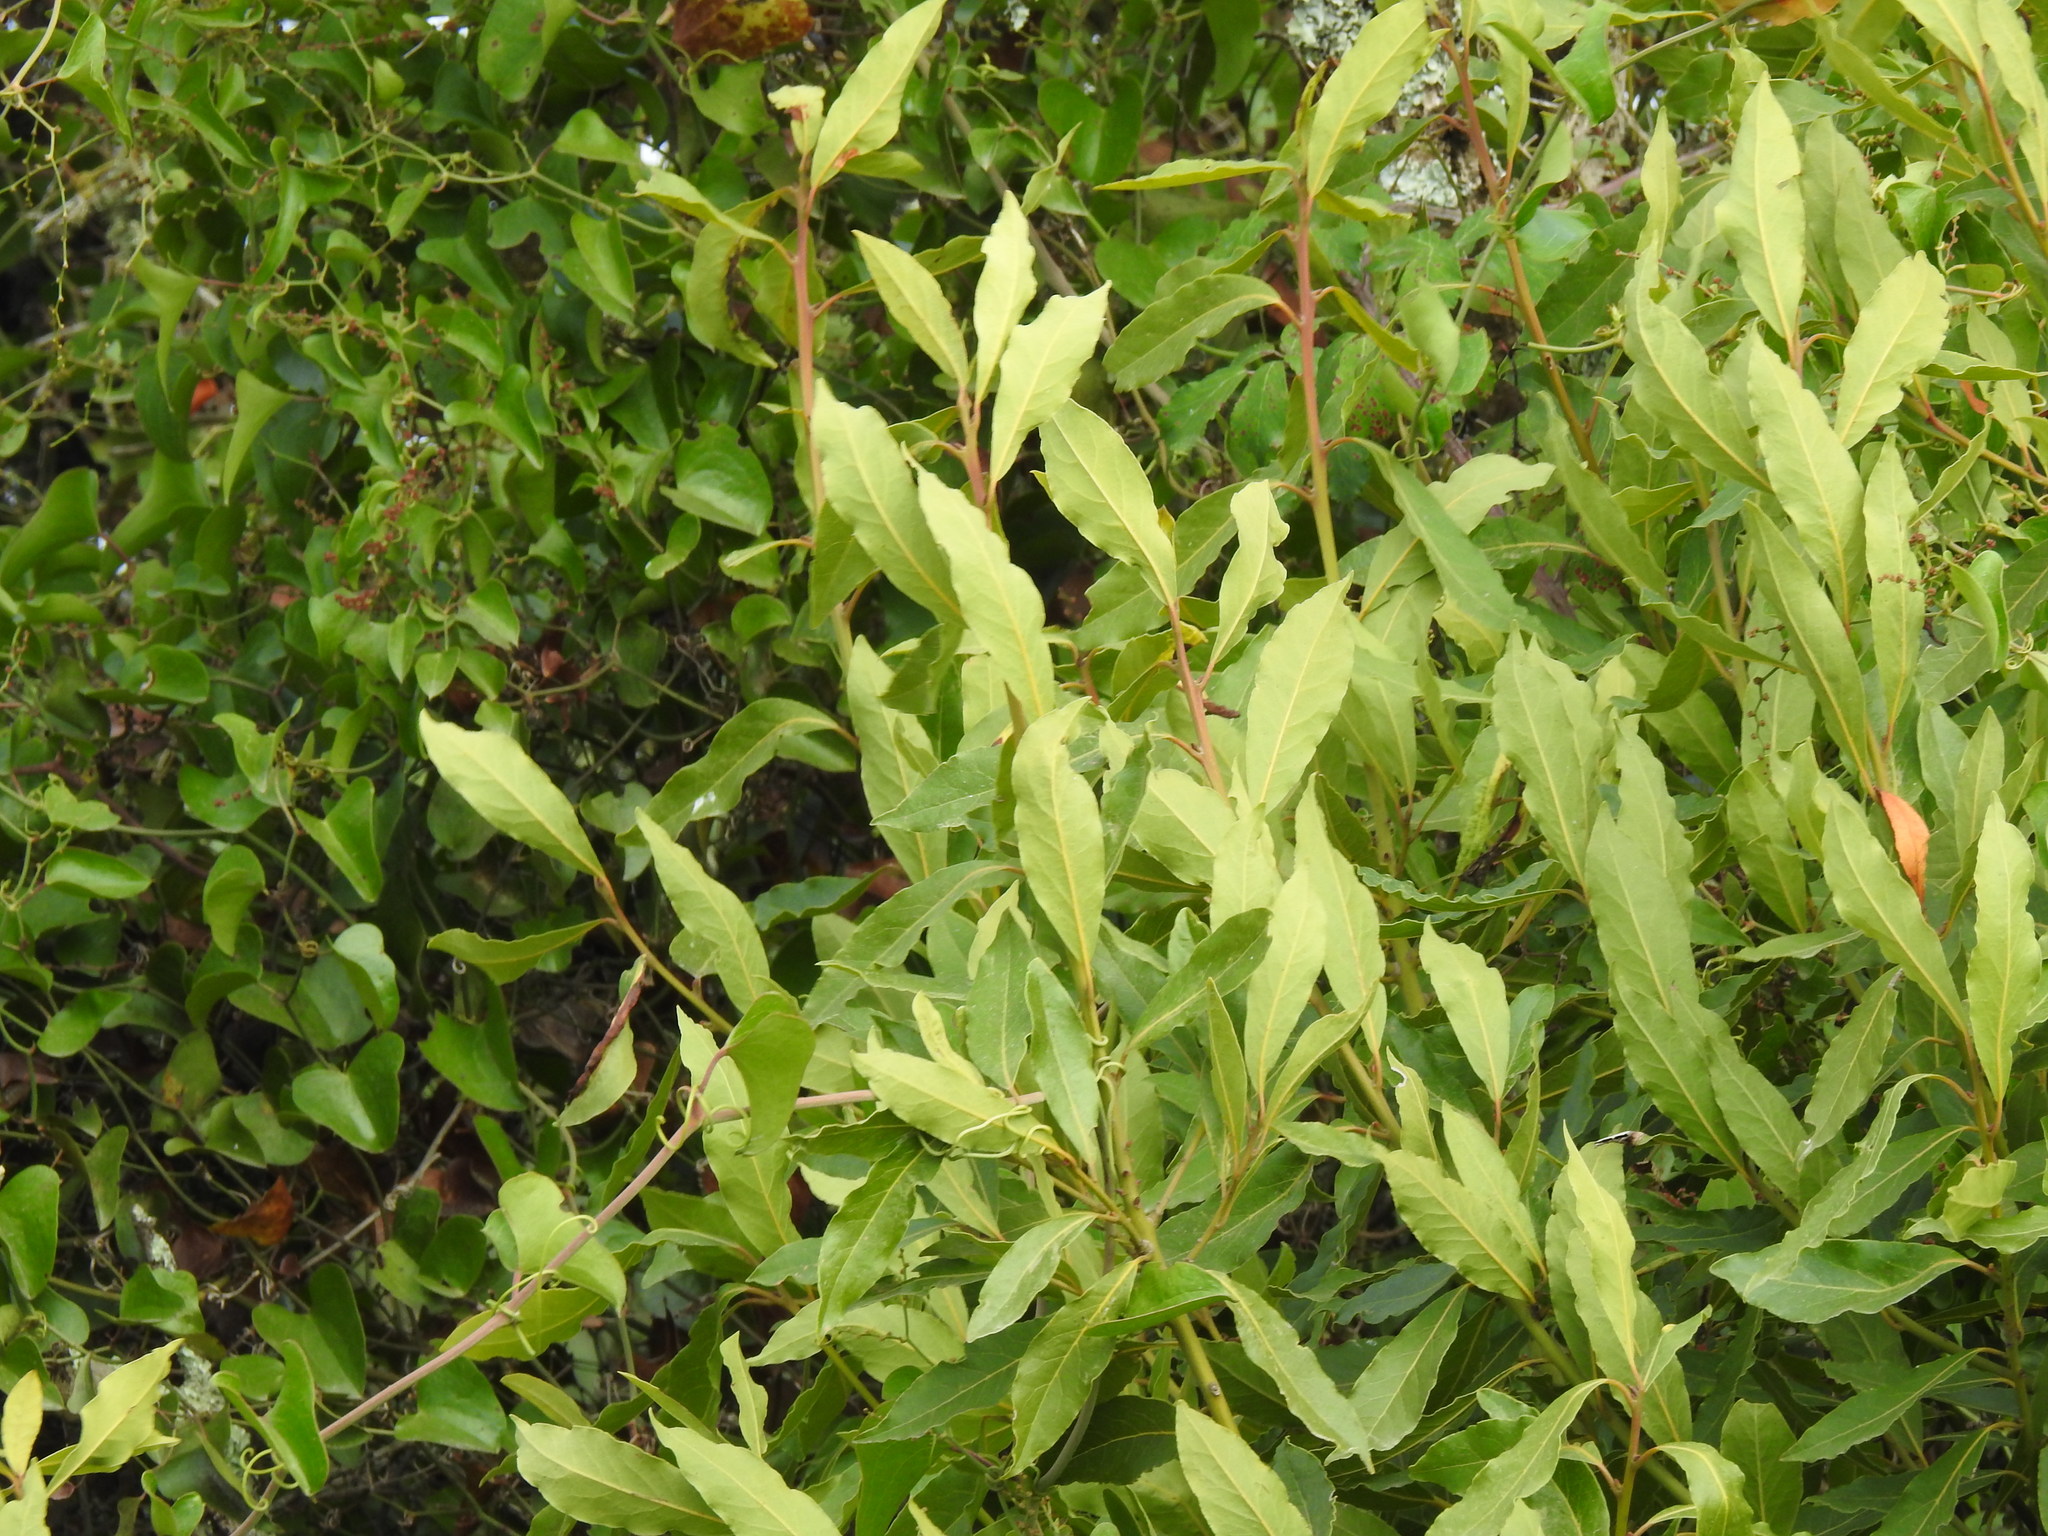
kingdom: Plantae
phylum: Tracheophyta
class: Magnoliopsida
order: Laurales
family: Lauraceae
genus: Laurus
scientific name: Laurus nobilis
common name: Bay
